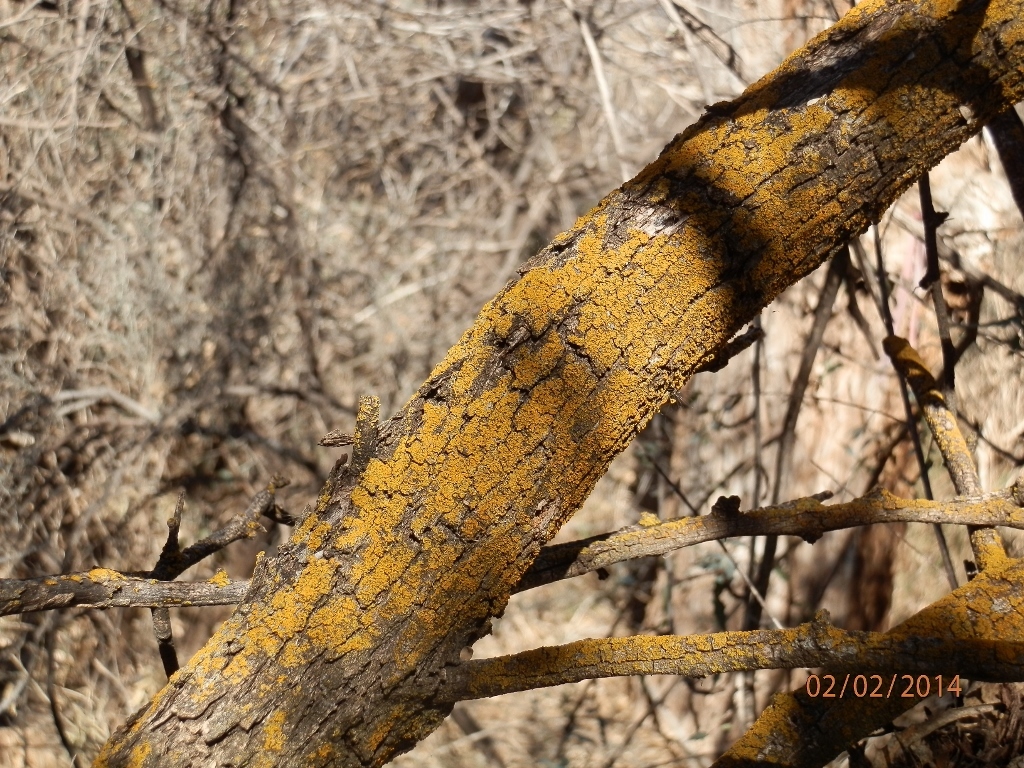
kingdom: Fungi
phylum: Ascomycota
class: Lecanoromycetes
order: Teloschistales
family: Teloschistaceae
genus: Oxneria
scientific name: Oxneria fallax
